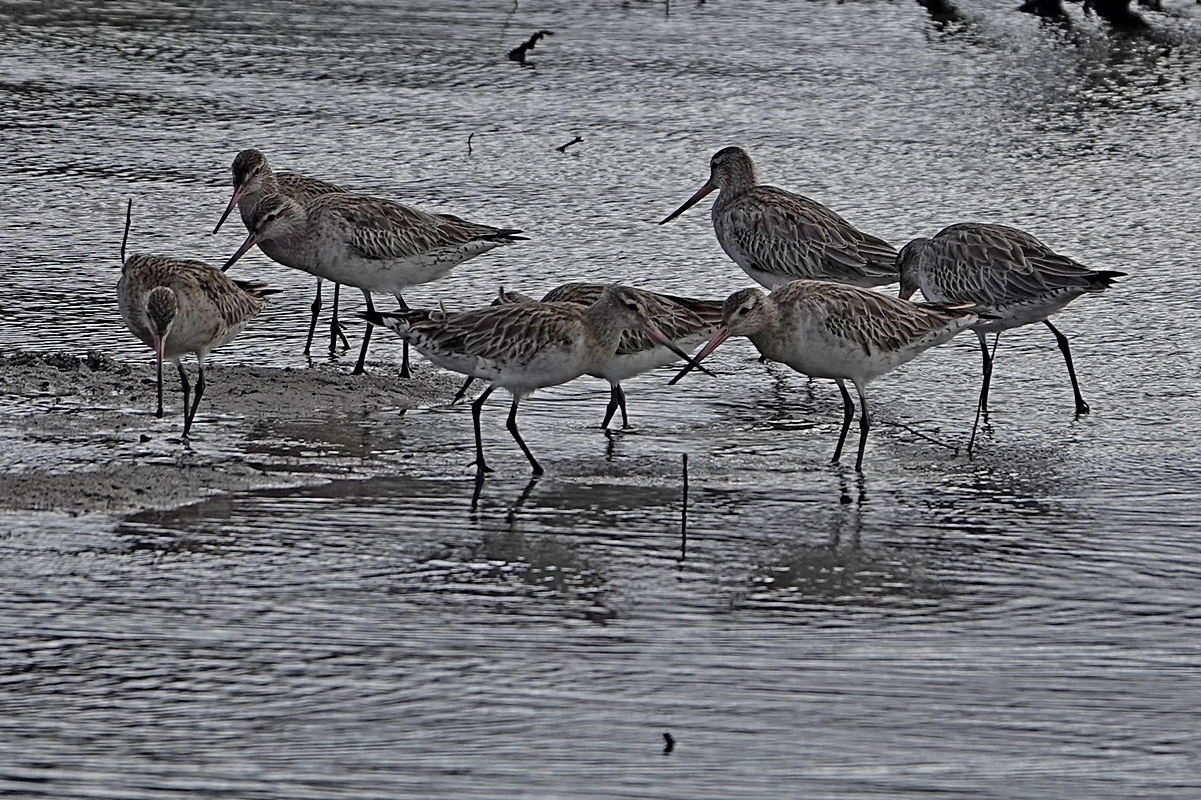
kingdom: Animalia
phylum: Chordata
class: Aves
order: Charadriiformes
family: Scolopacidae
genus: Limosa
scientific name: Limosa lapponica
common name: Bar-tailed godwit
